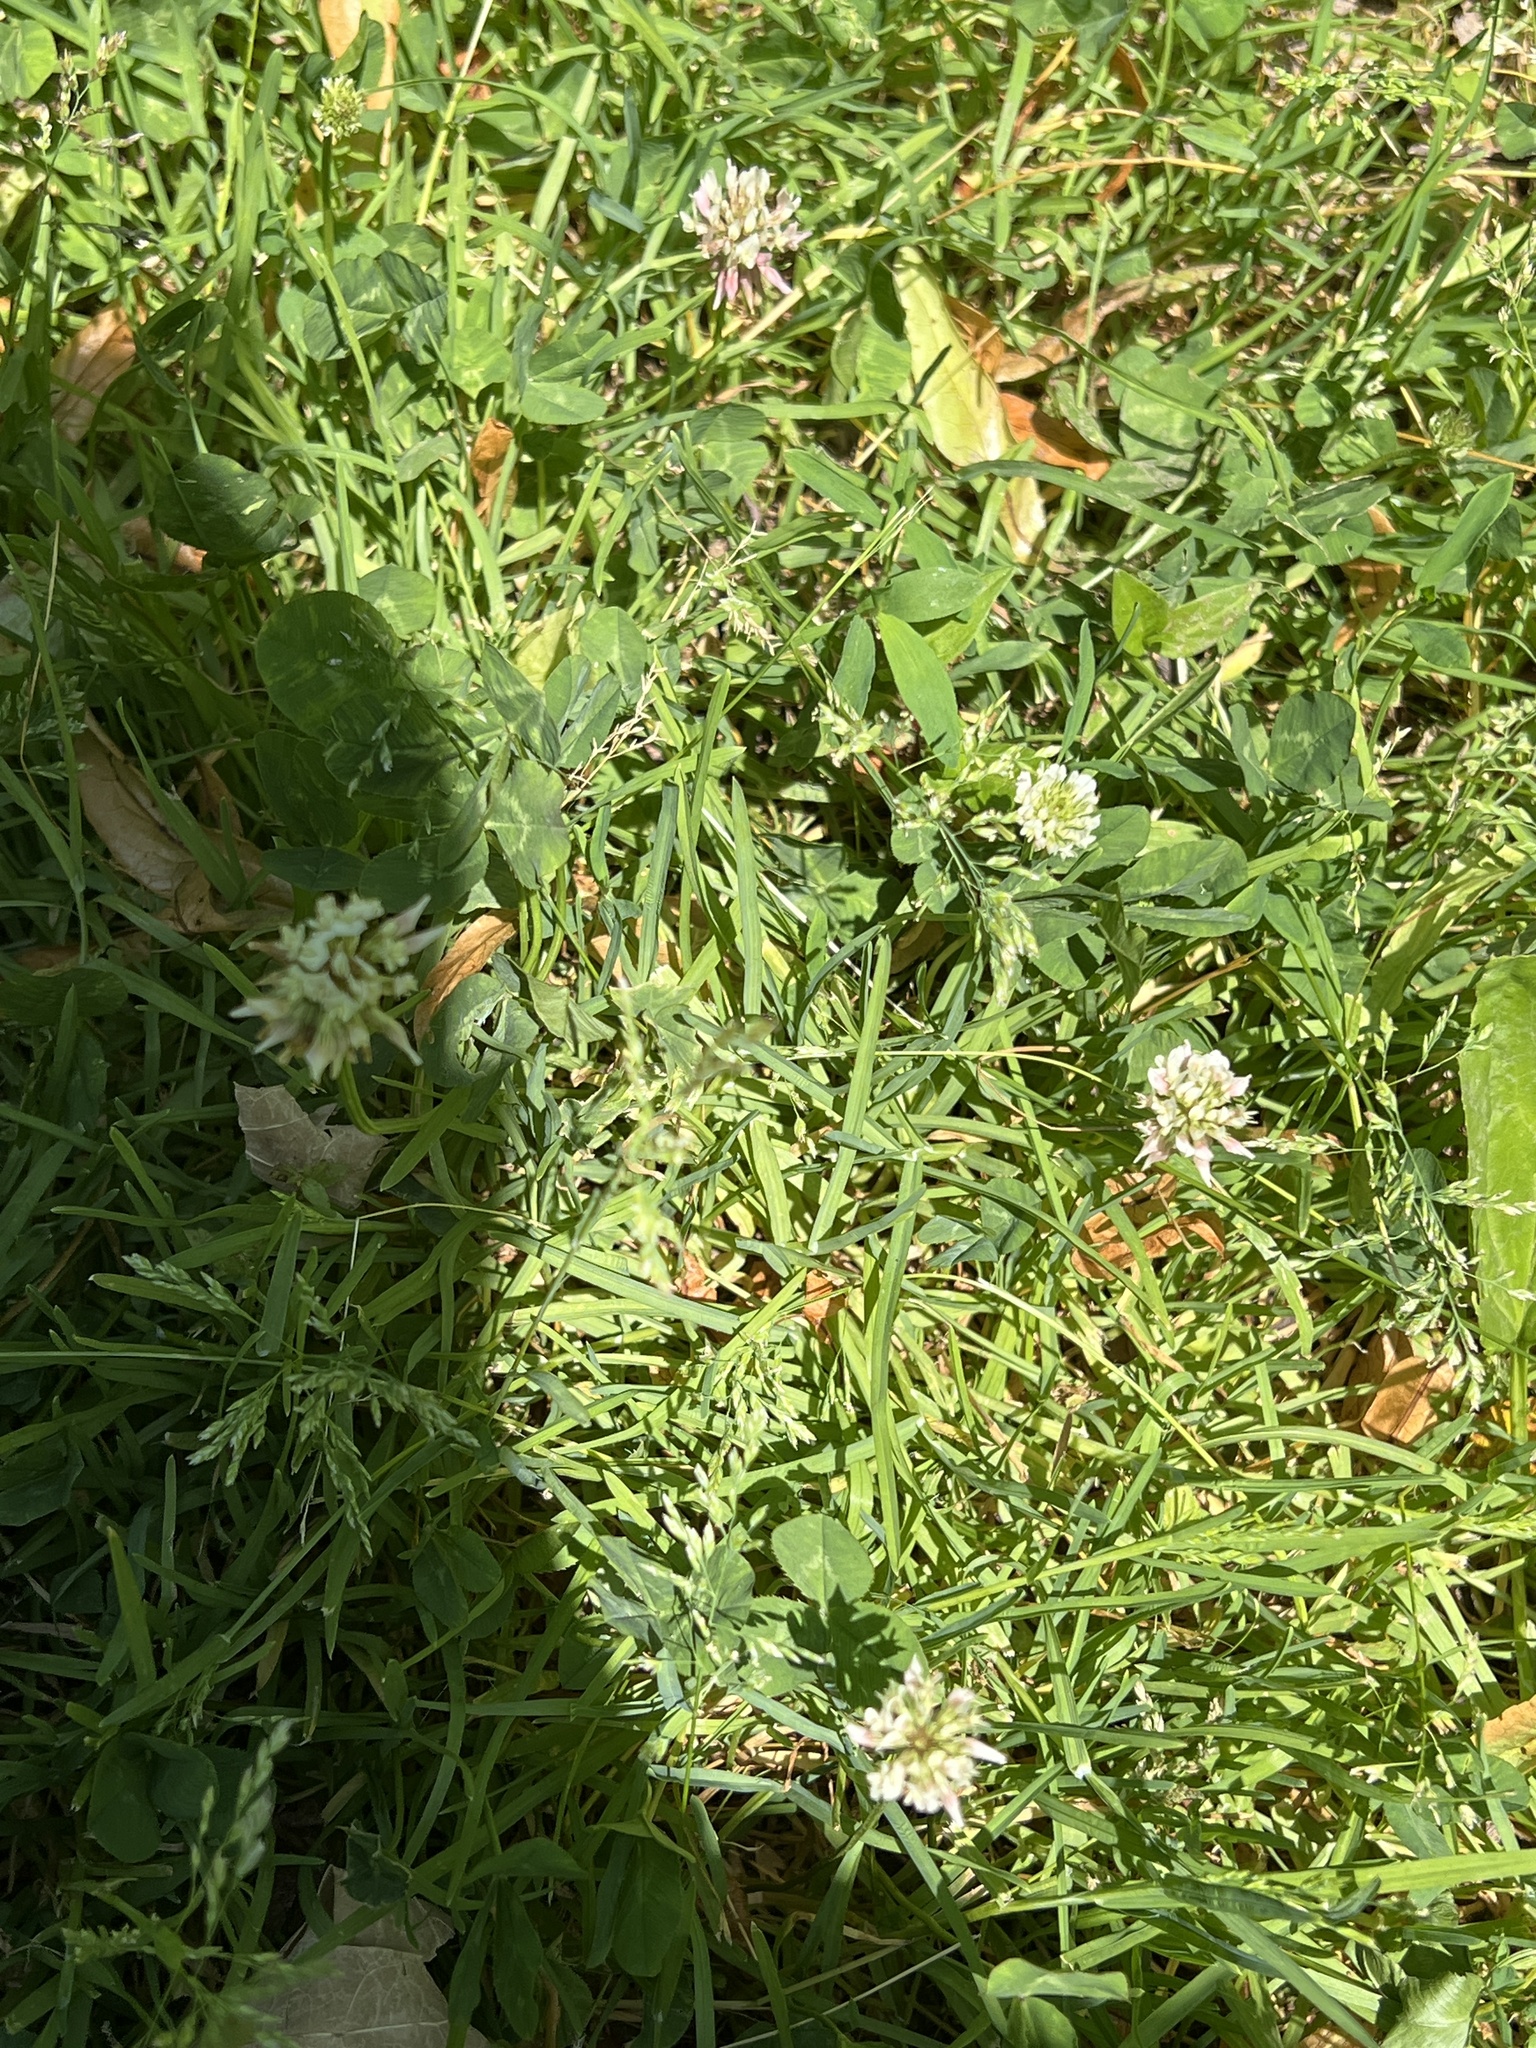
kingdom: Plantae
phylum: Tracheophyta
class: Magnoliopsida
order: Fabales
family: Fabaceae
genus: Trifolium
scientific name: Trifolium repens
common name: White clover
